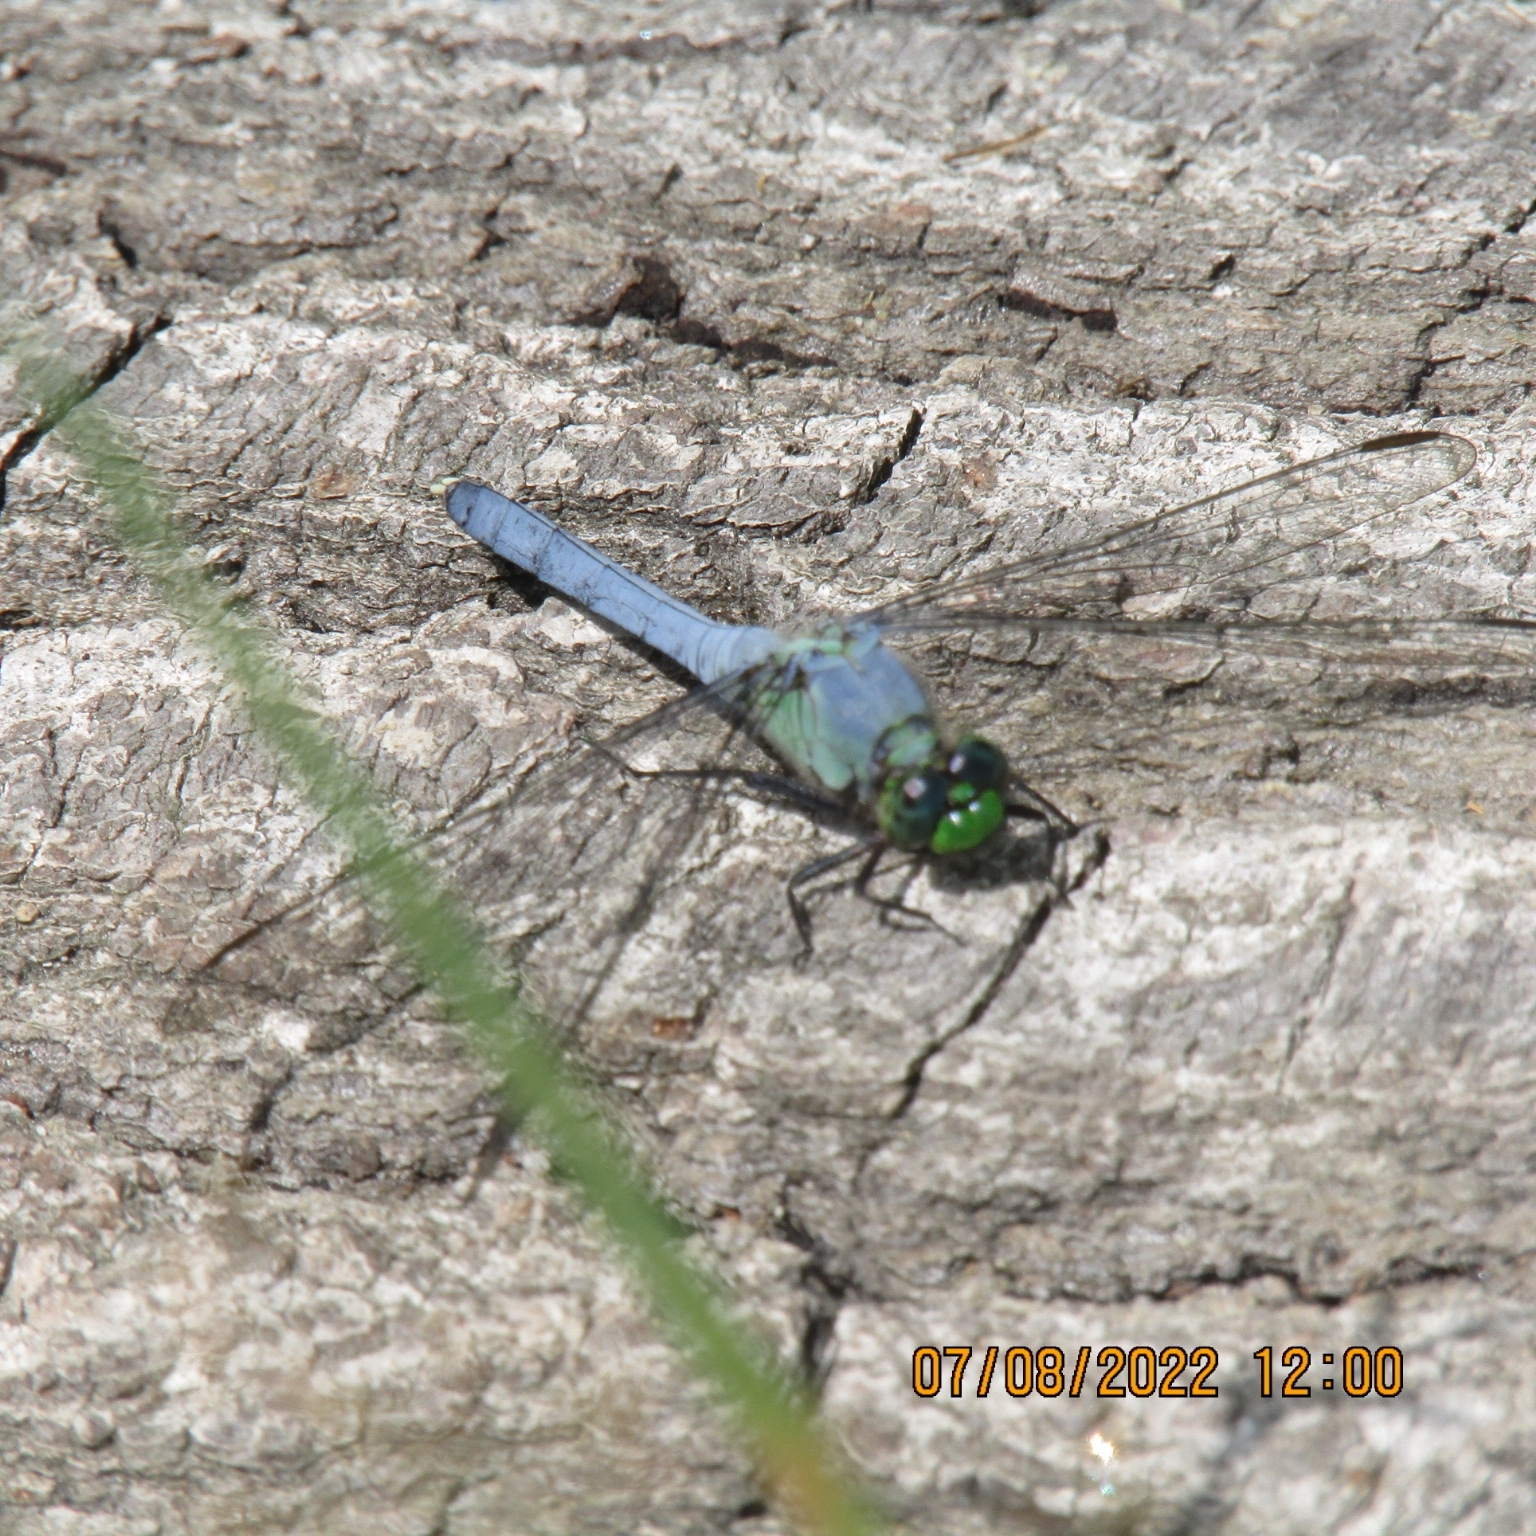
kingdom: Animalia
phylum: Arthropoda
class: Insecta
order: Odonata
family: Libellulidae
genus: Erythemis
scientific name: Erythemis simplicicollis
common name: Eastern pondhawk
